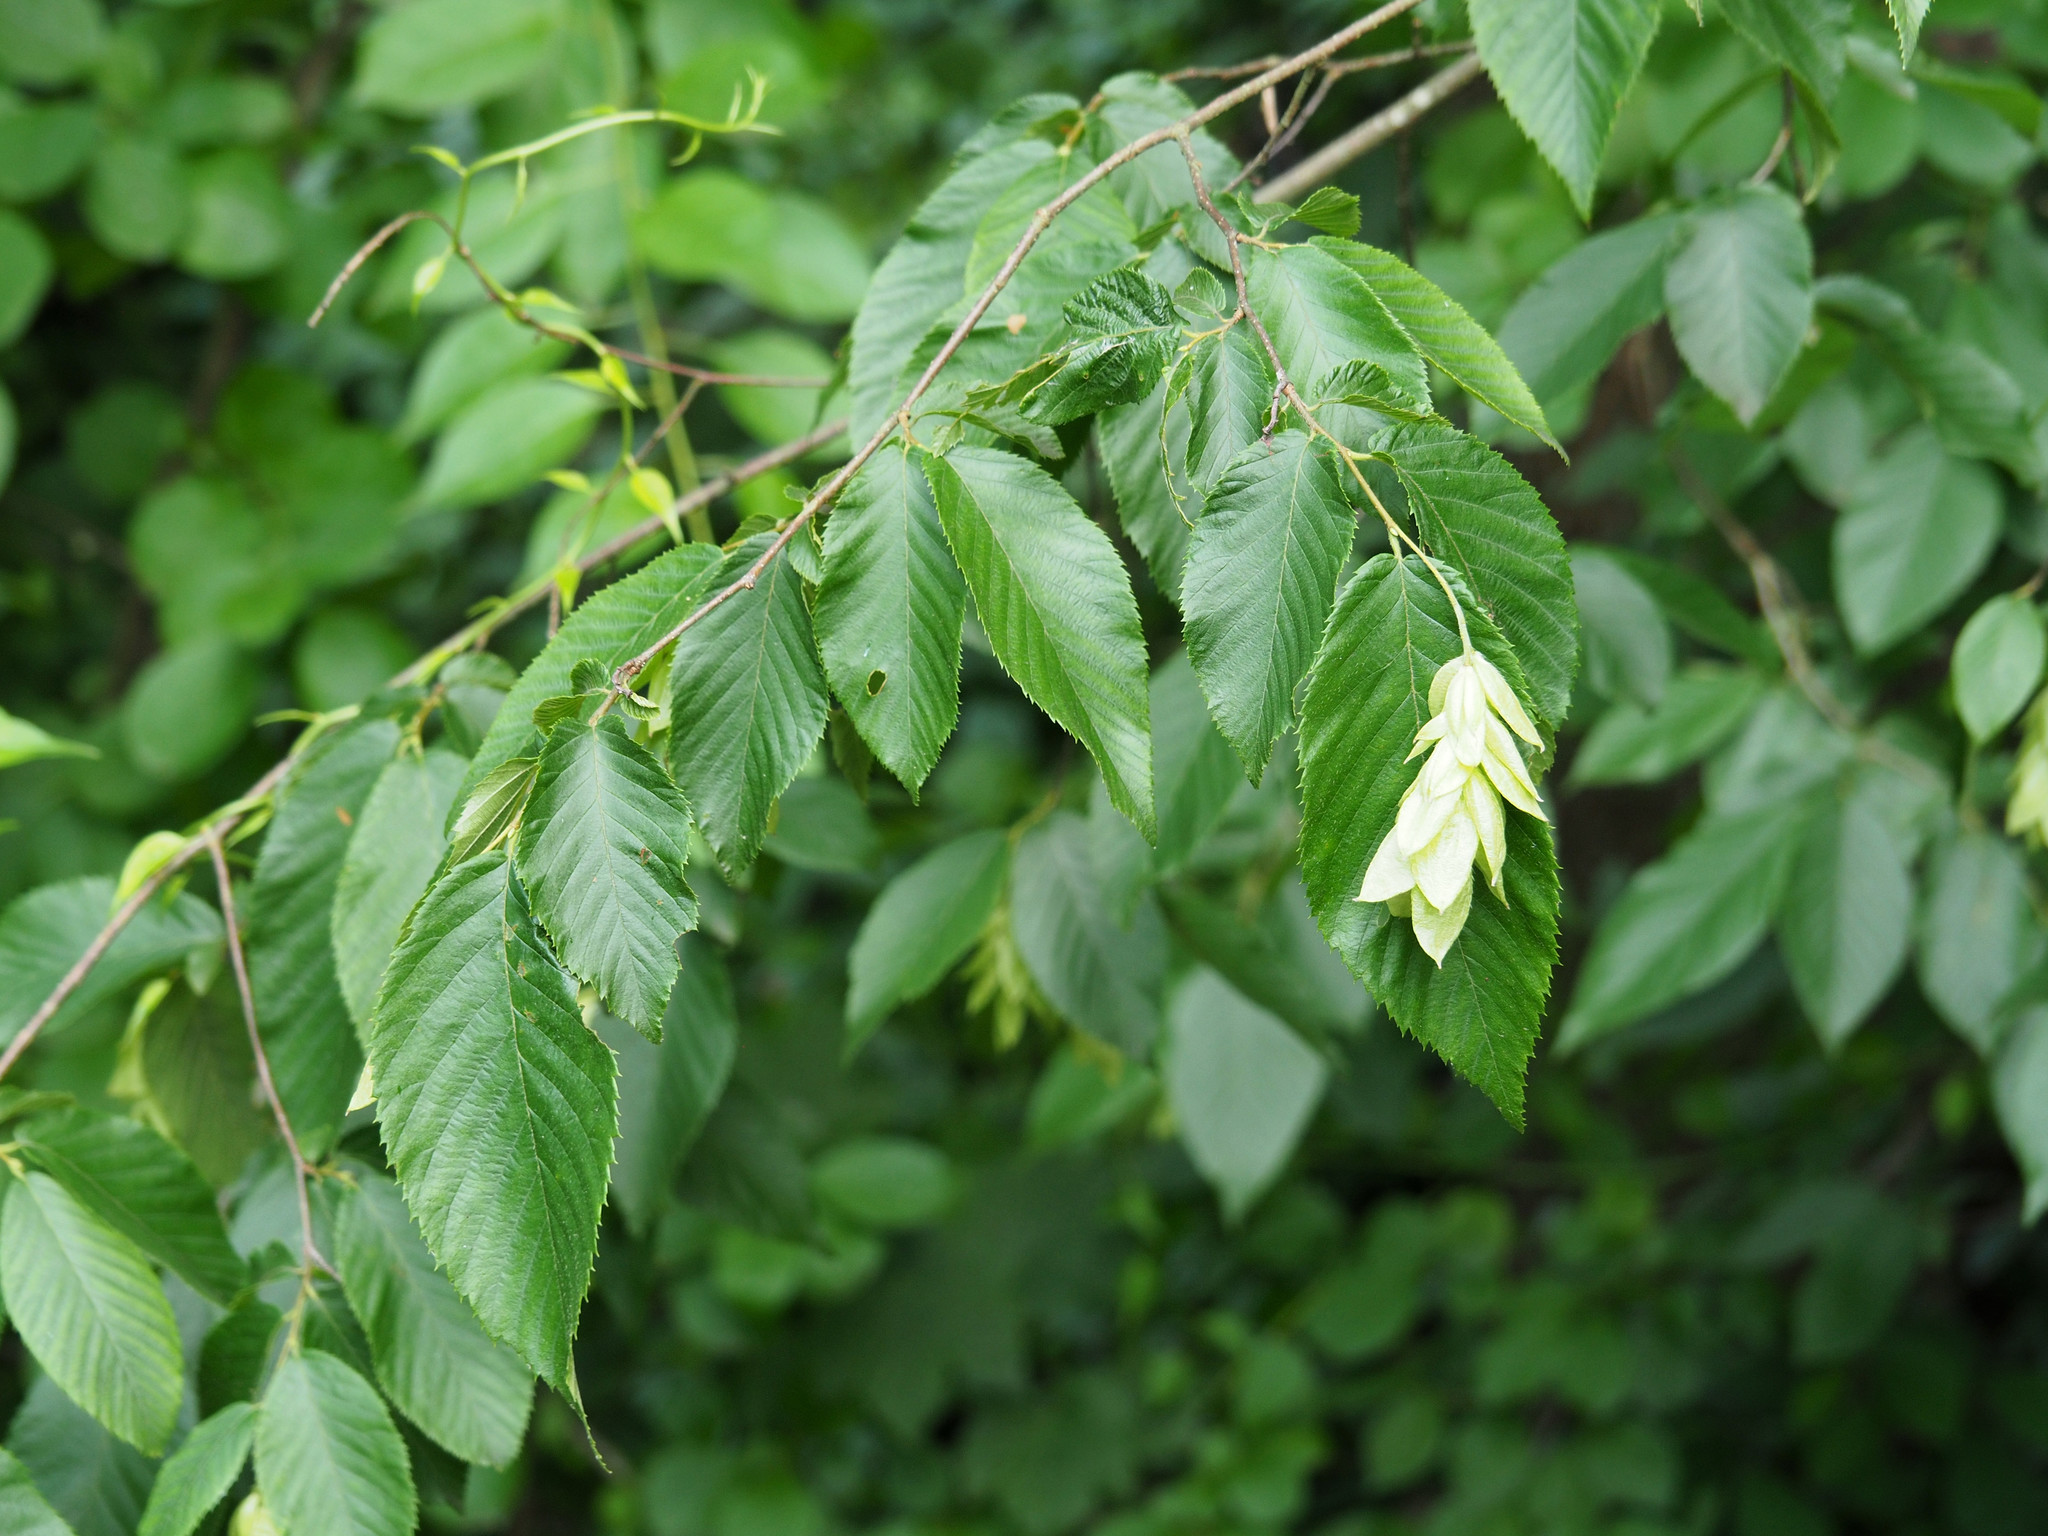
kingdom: Plantae
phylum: Tracheophyta
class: Magnoliopsida
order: Fagales
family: Betulaceae
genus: Ostrya
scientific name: Ostrya virginiana
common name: Ironwood
